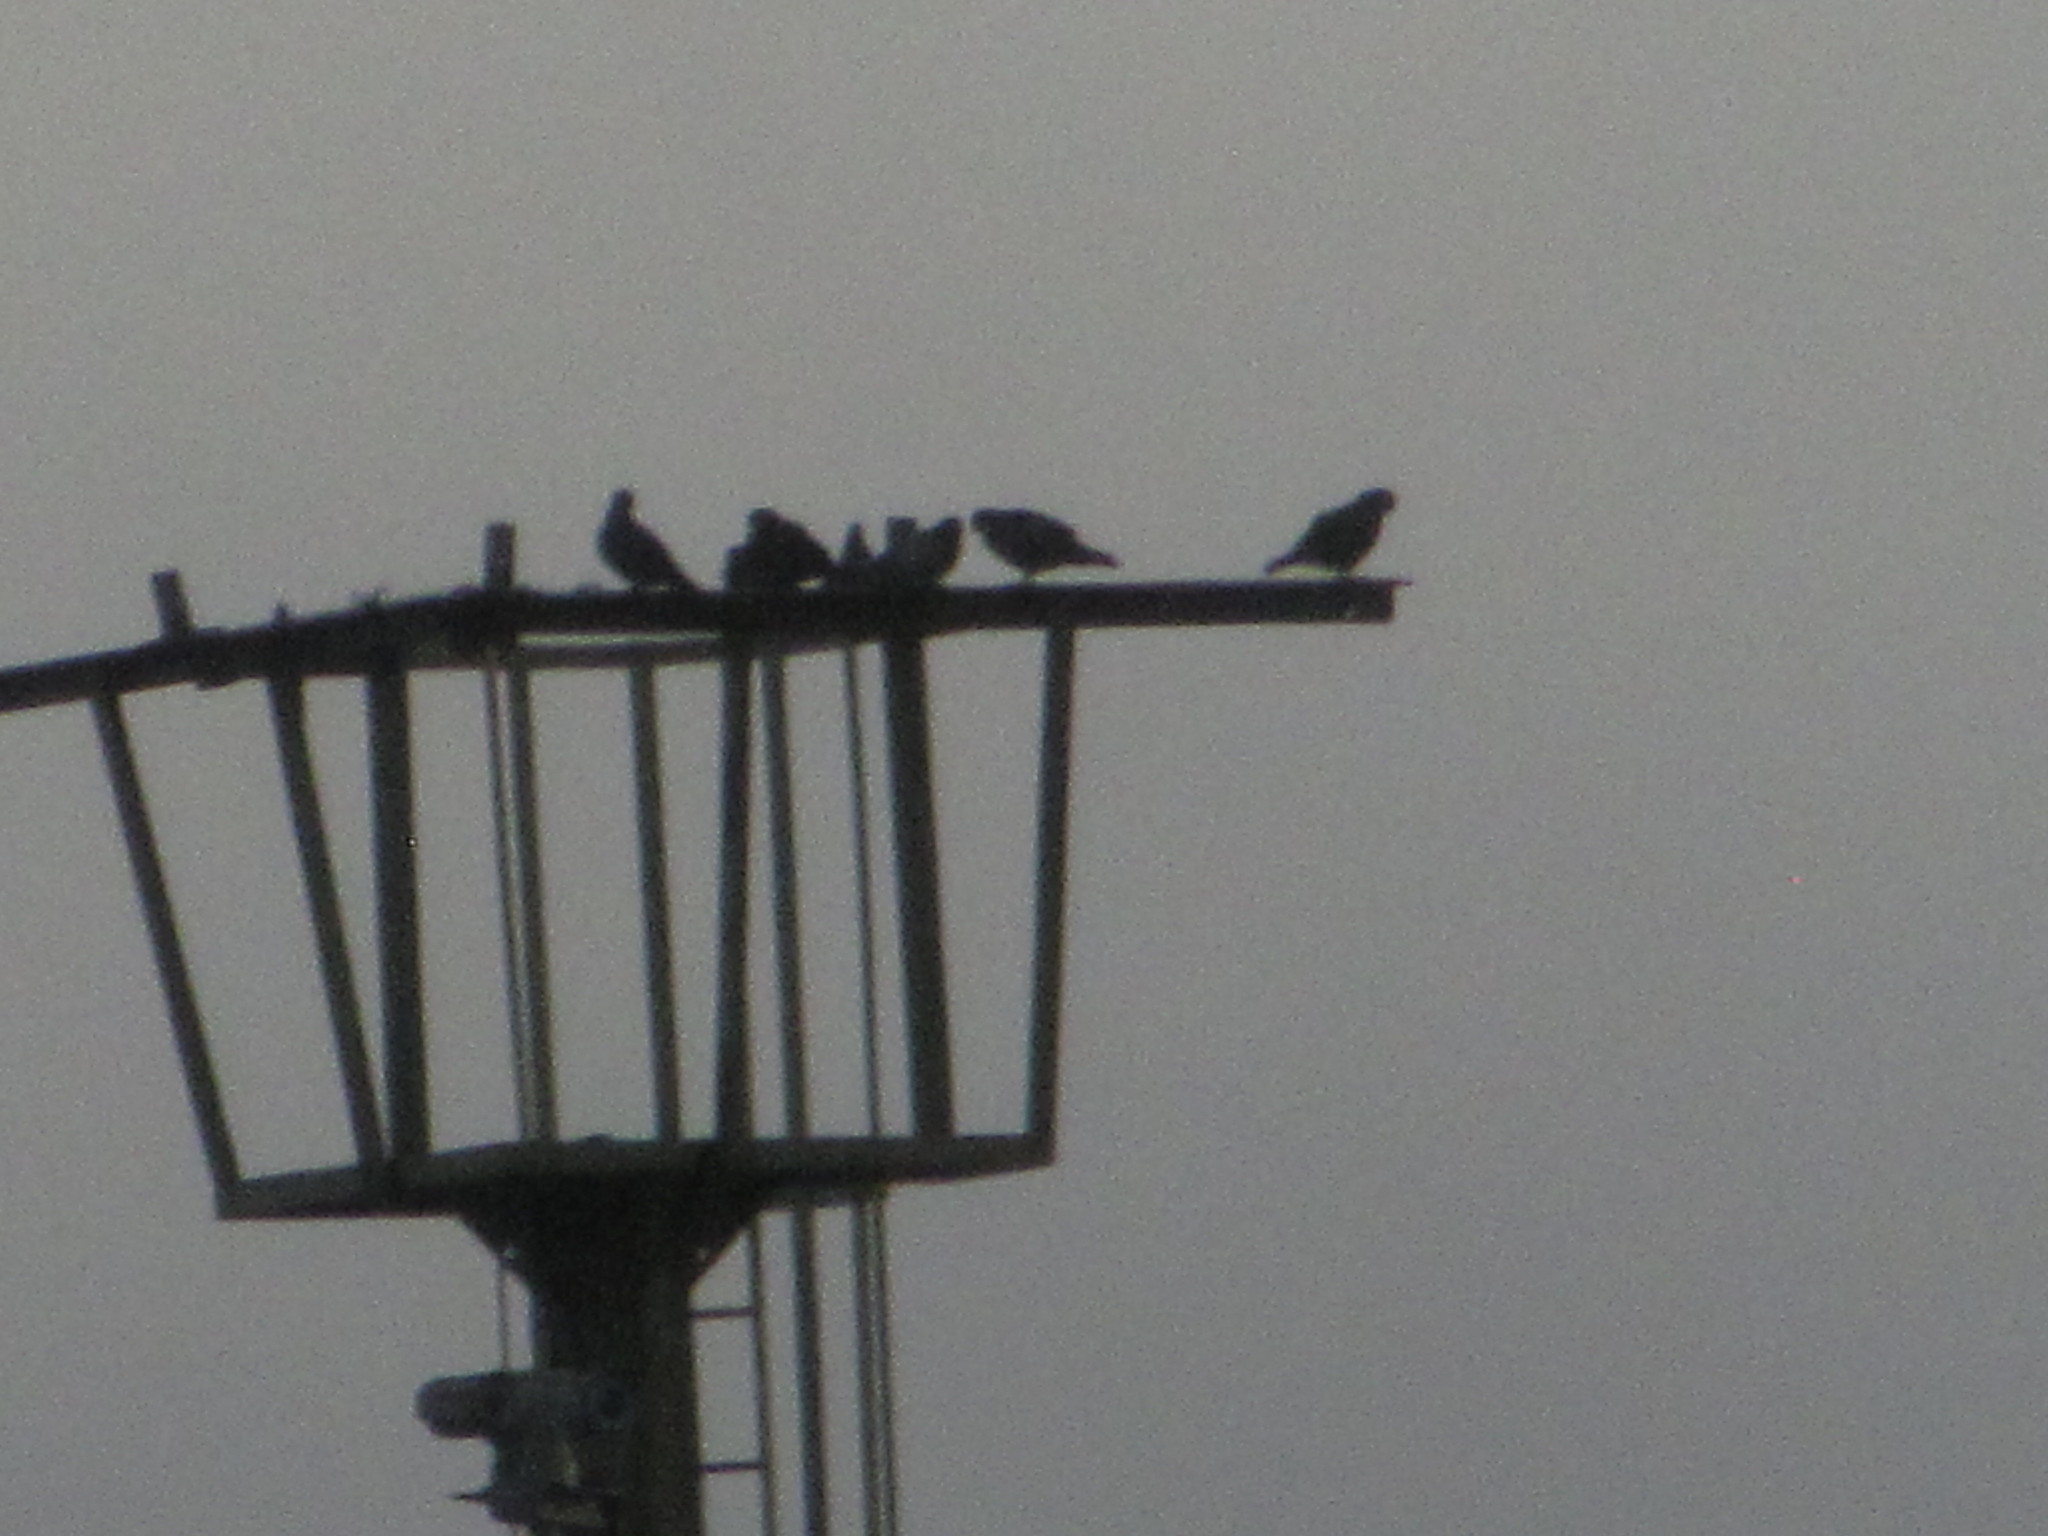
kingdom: Animalia
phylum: Chordata
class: Aves
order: Columbiformes
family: Columbidae
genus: Columba
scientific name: Columba livia
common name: Rock pigeon
